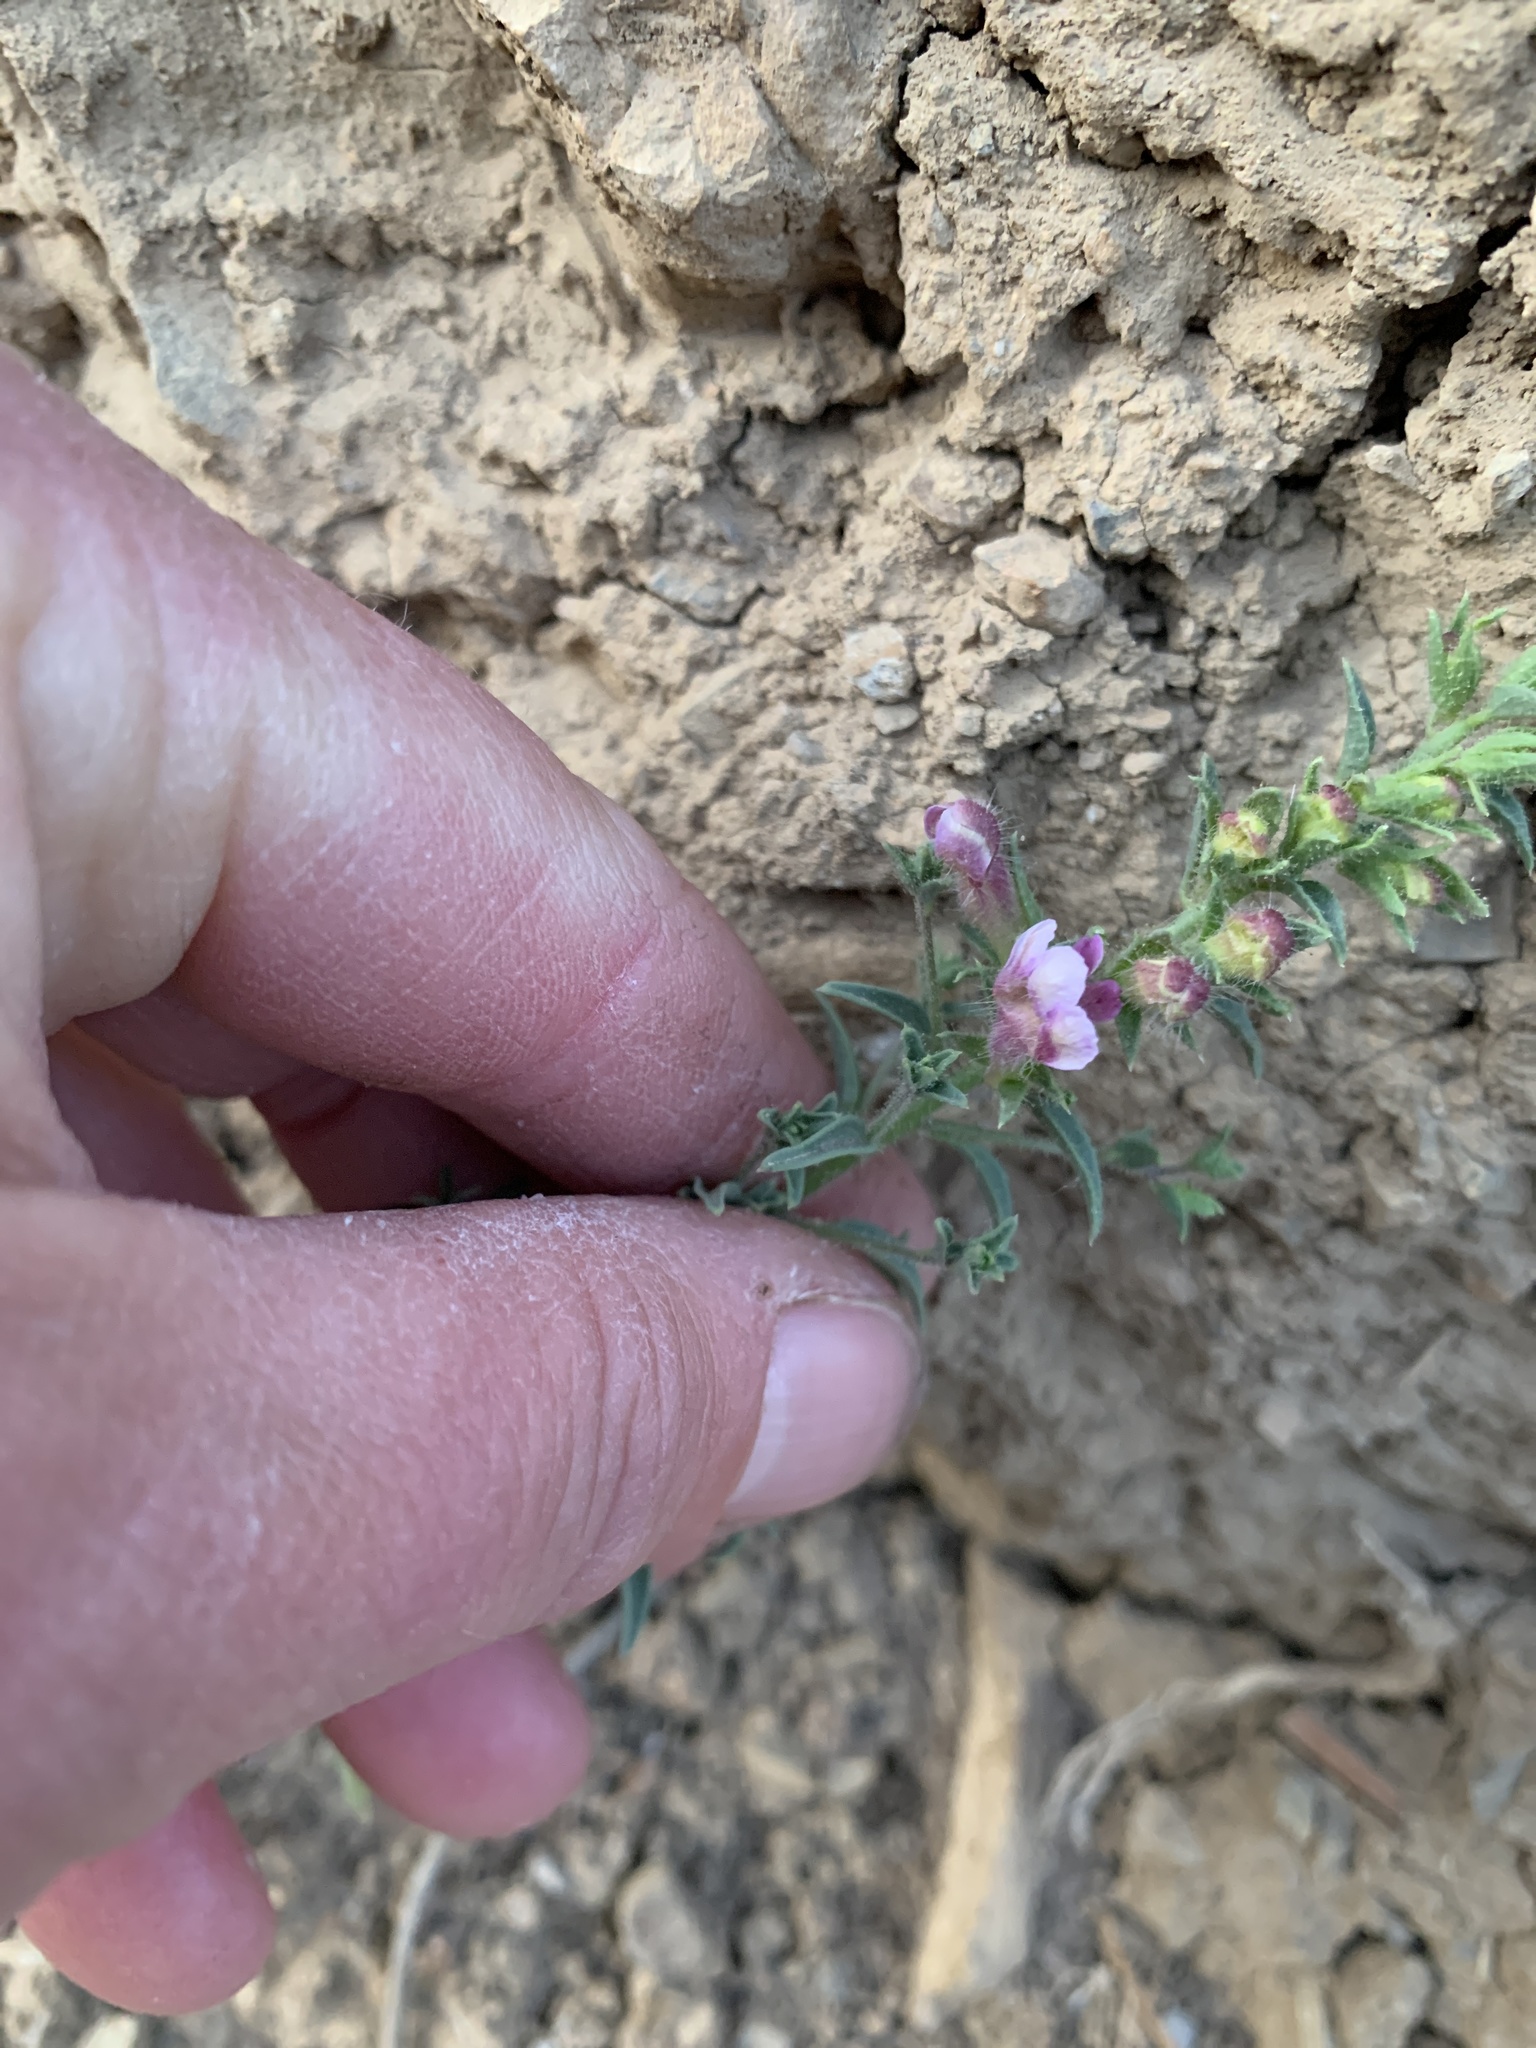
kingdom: Plantae
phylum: Tracheophyta
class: Magnoliopsida
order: Lamiales
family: Plantaginaceae
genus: Sairocarpus
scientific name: Sairocarpus vexillocalyculatus
